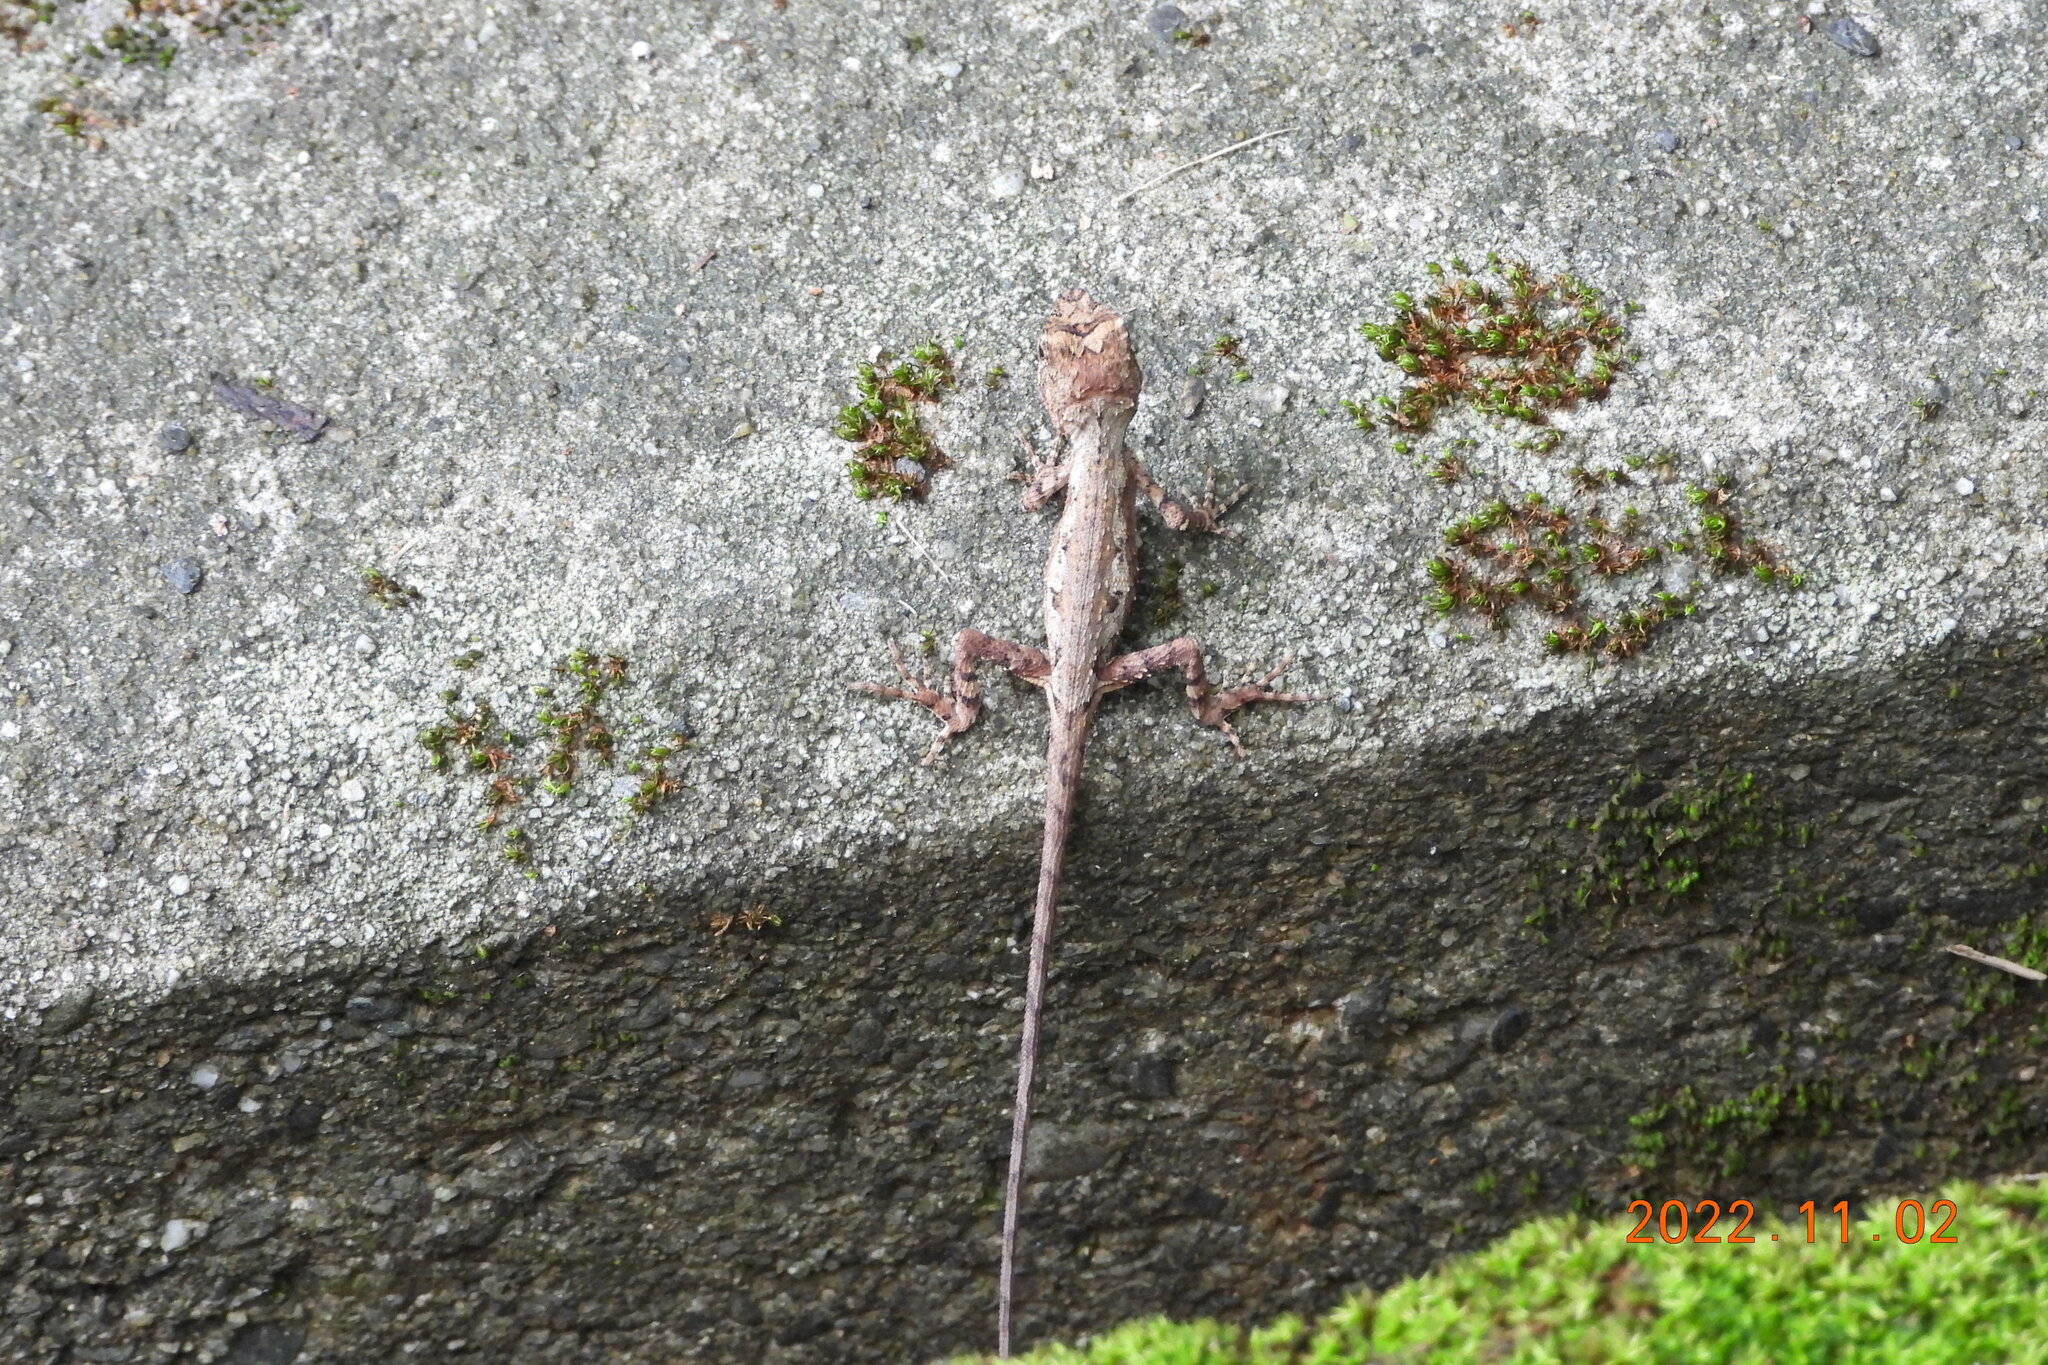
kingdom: Animalia
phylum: Chordata
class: Squamata
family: Agamidae
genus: Diploderma
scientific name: Diploderma swinhonis
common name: Taiwan japalure
